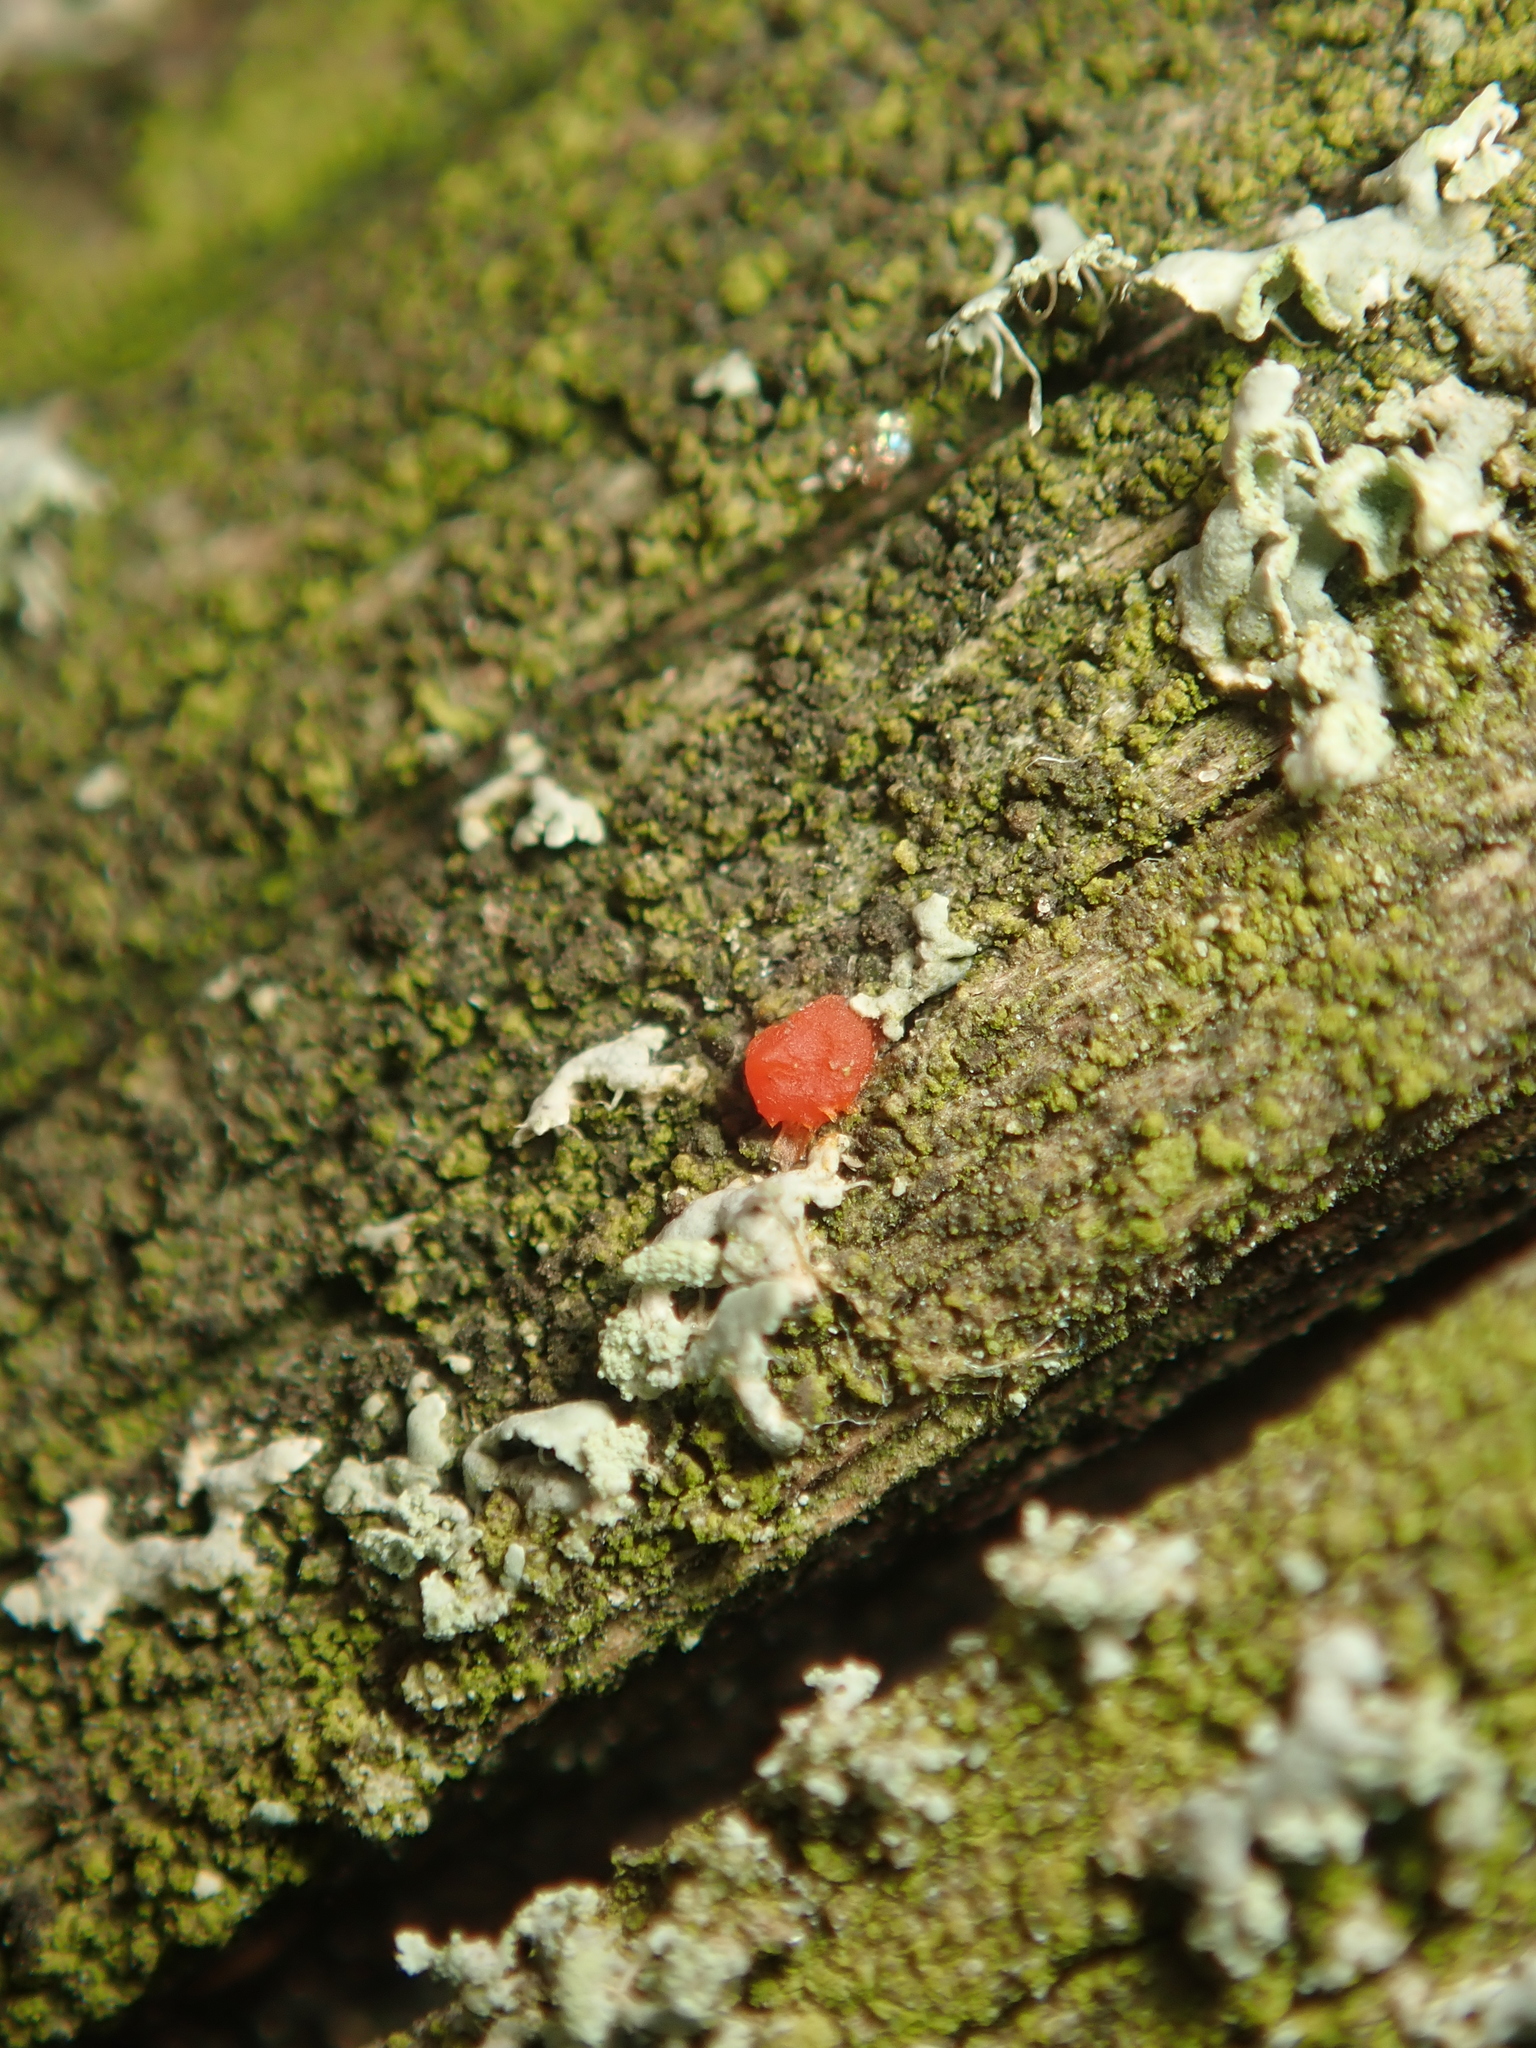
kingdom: Fungi
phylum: Basidiomycota
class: Dacrymycetes
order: Dacrymycetales
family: Dacrymycetaceae
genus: Dacrymyces
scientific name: Dacrymyces stillatus
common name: Common jelly spot
